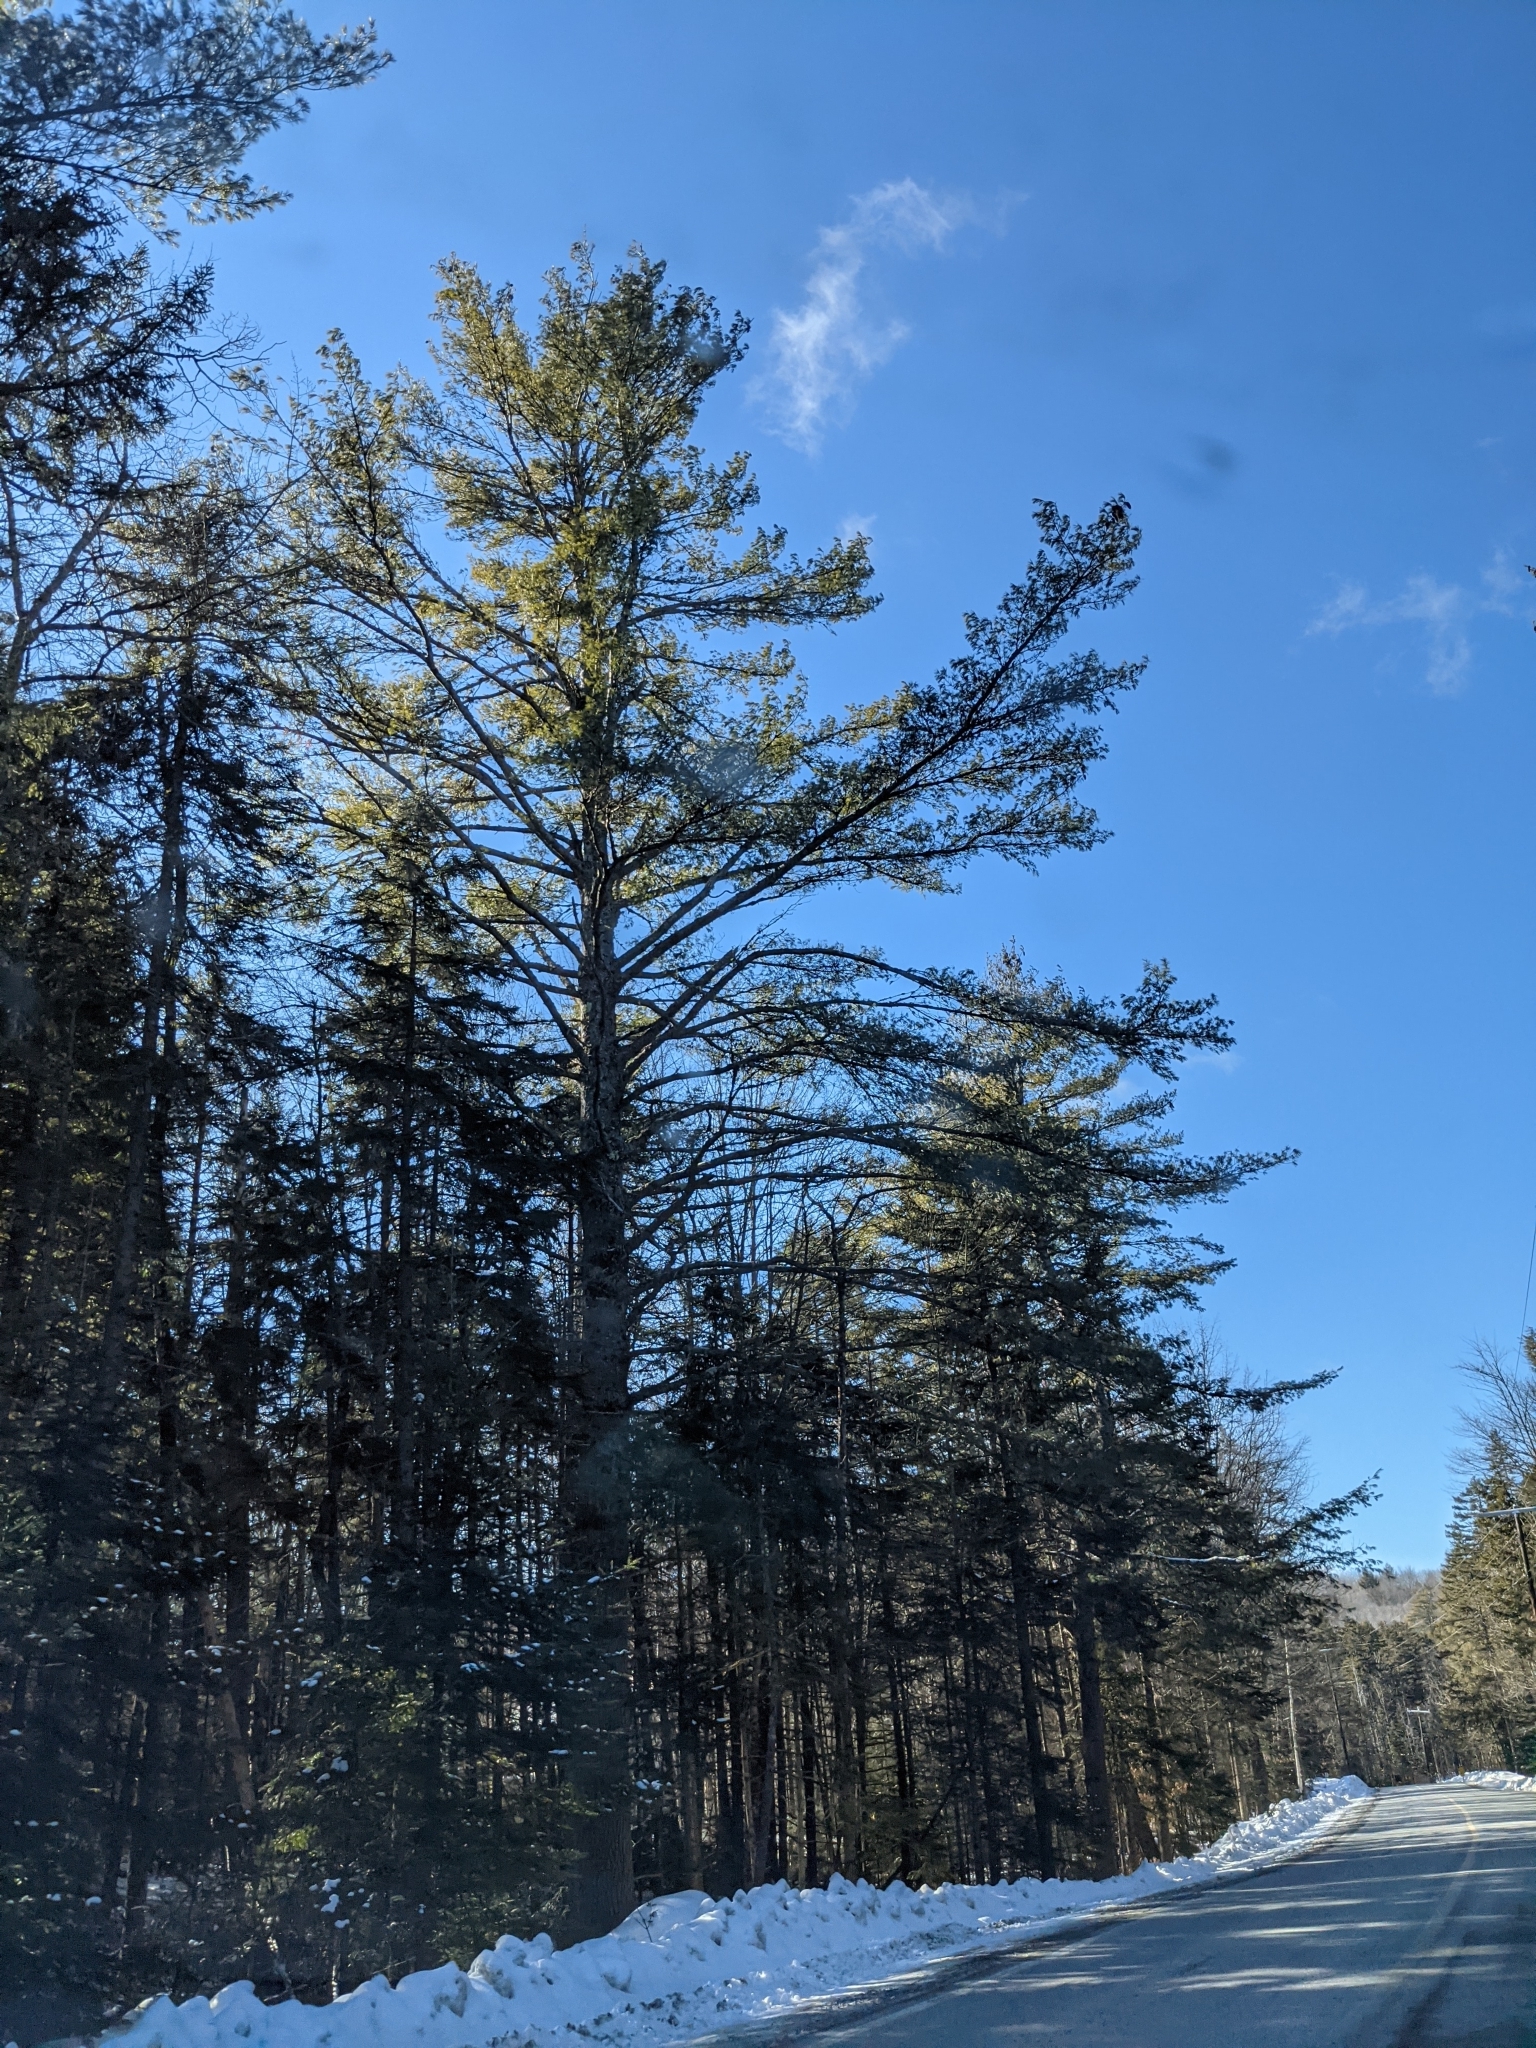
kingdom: Plantae
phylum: Tracheophyta
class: Pinopsida
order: Pinales
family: Pinaceae
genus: Pinus
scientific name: Pinus strobus
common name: Weymouth pine
